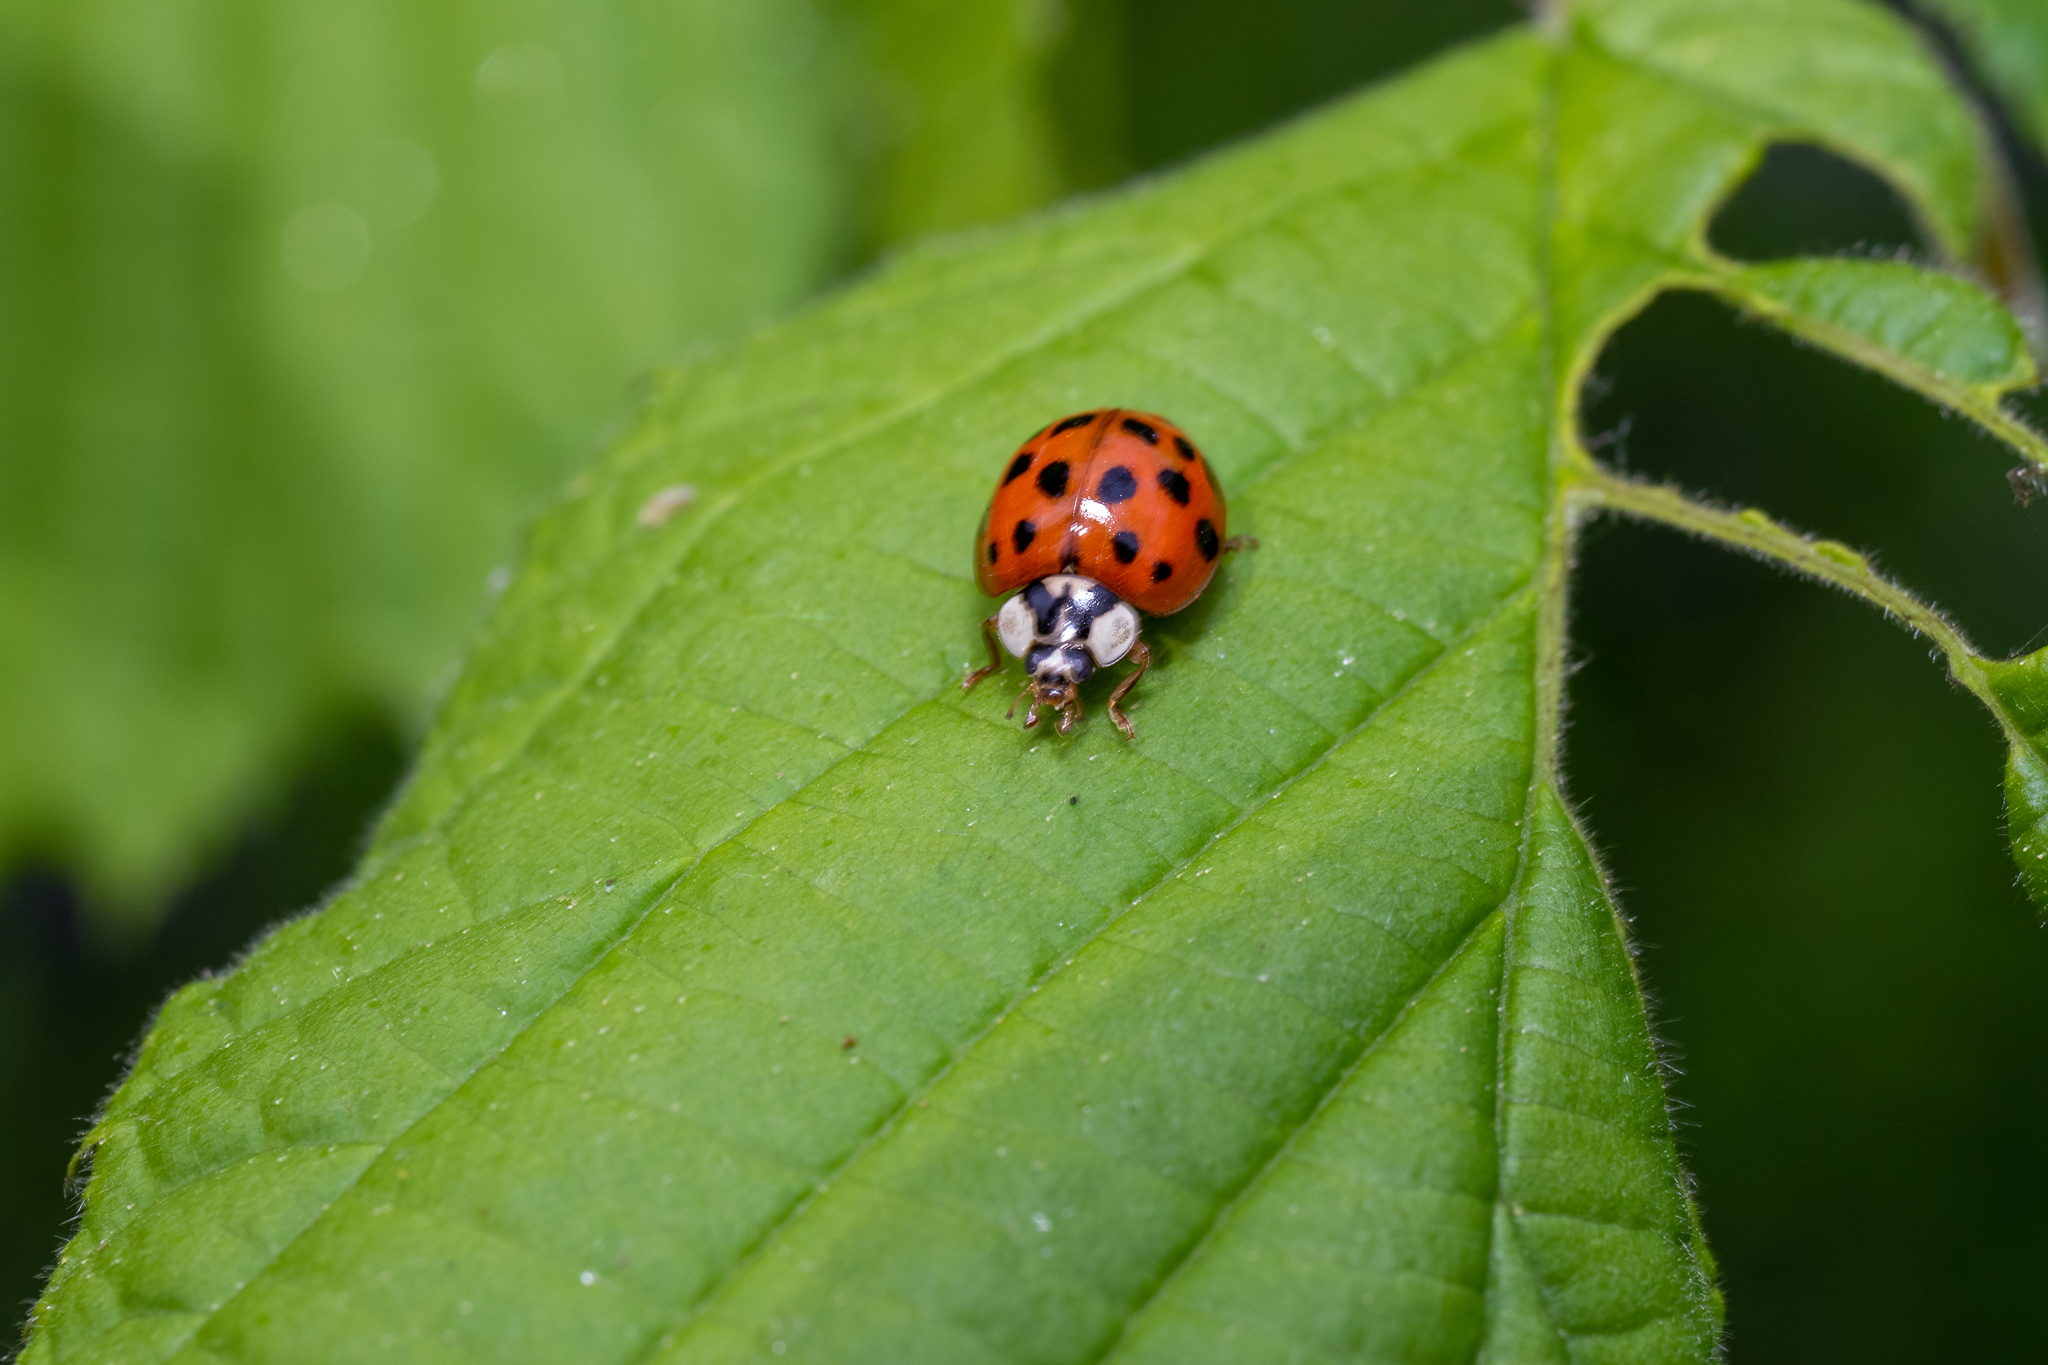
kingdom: Animalia
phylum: Arthropoda
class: Insecta
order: Coleoptera
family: Coccinellidae
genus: Harmonia
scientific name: Harmonia axyridis
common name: Harlequin ladybird
